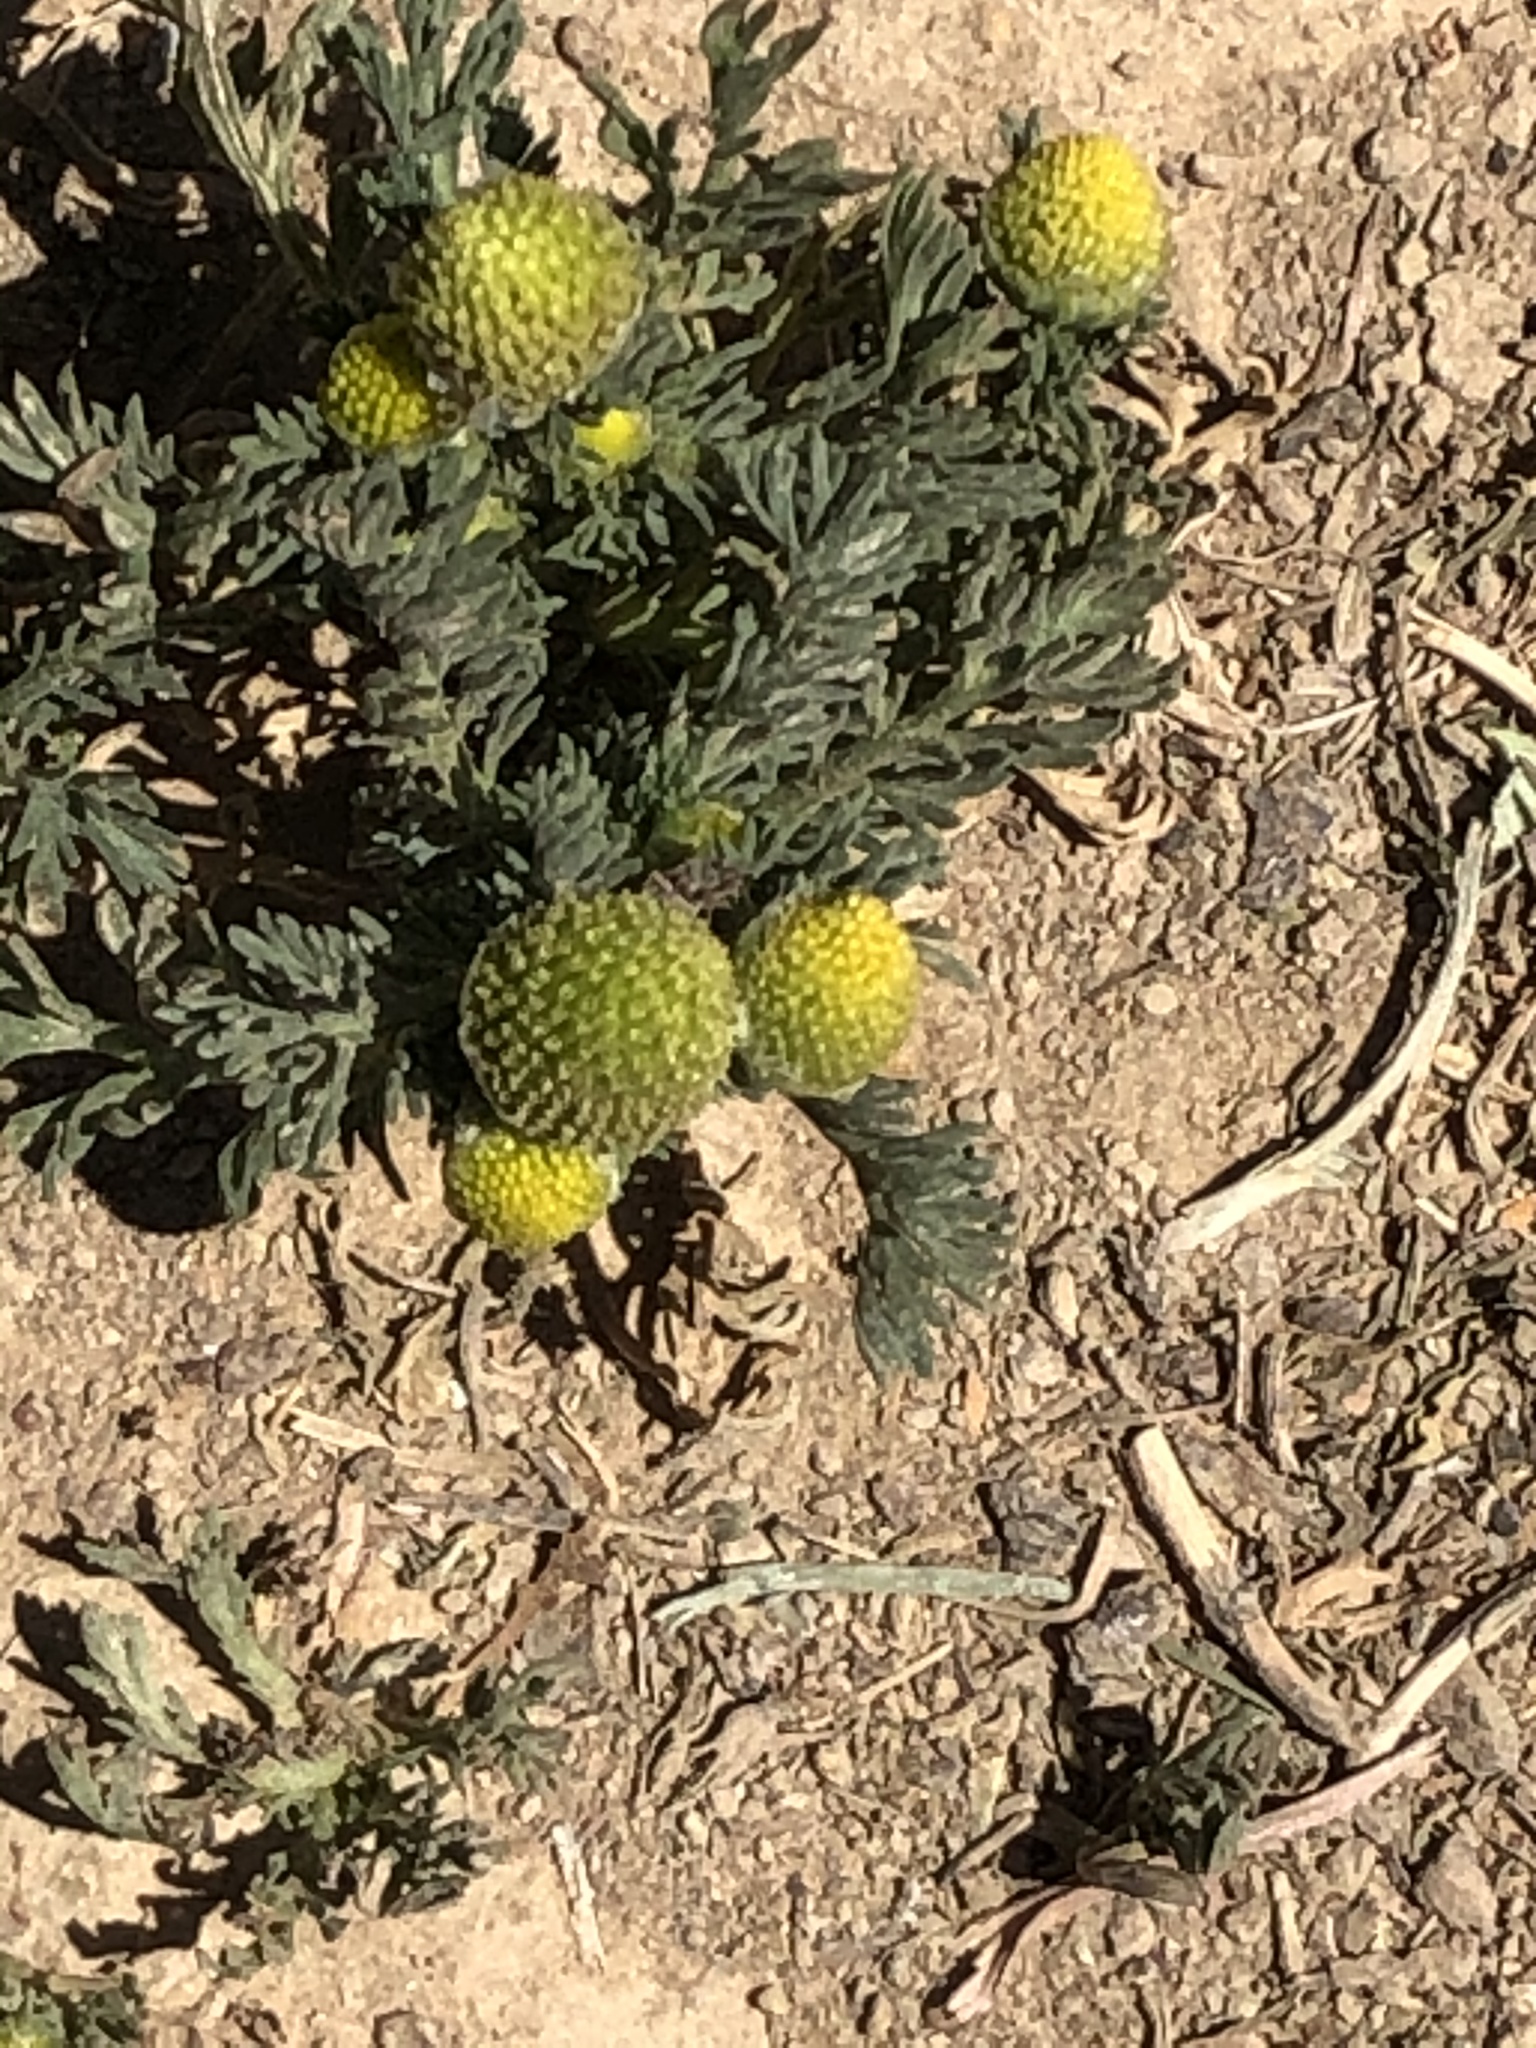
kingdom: Plantae
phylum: Tracheophyta
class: Magnoliopsida
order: Asterales
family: Asteraceae
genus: Matricaria
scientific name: Matricaria discoidea
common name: Disc mayweed
